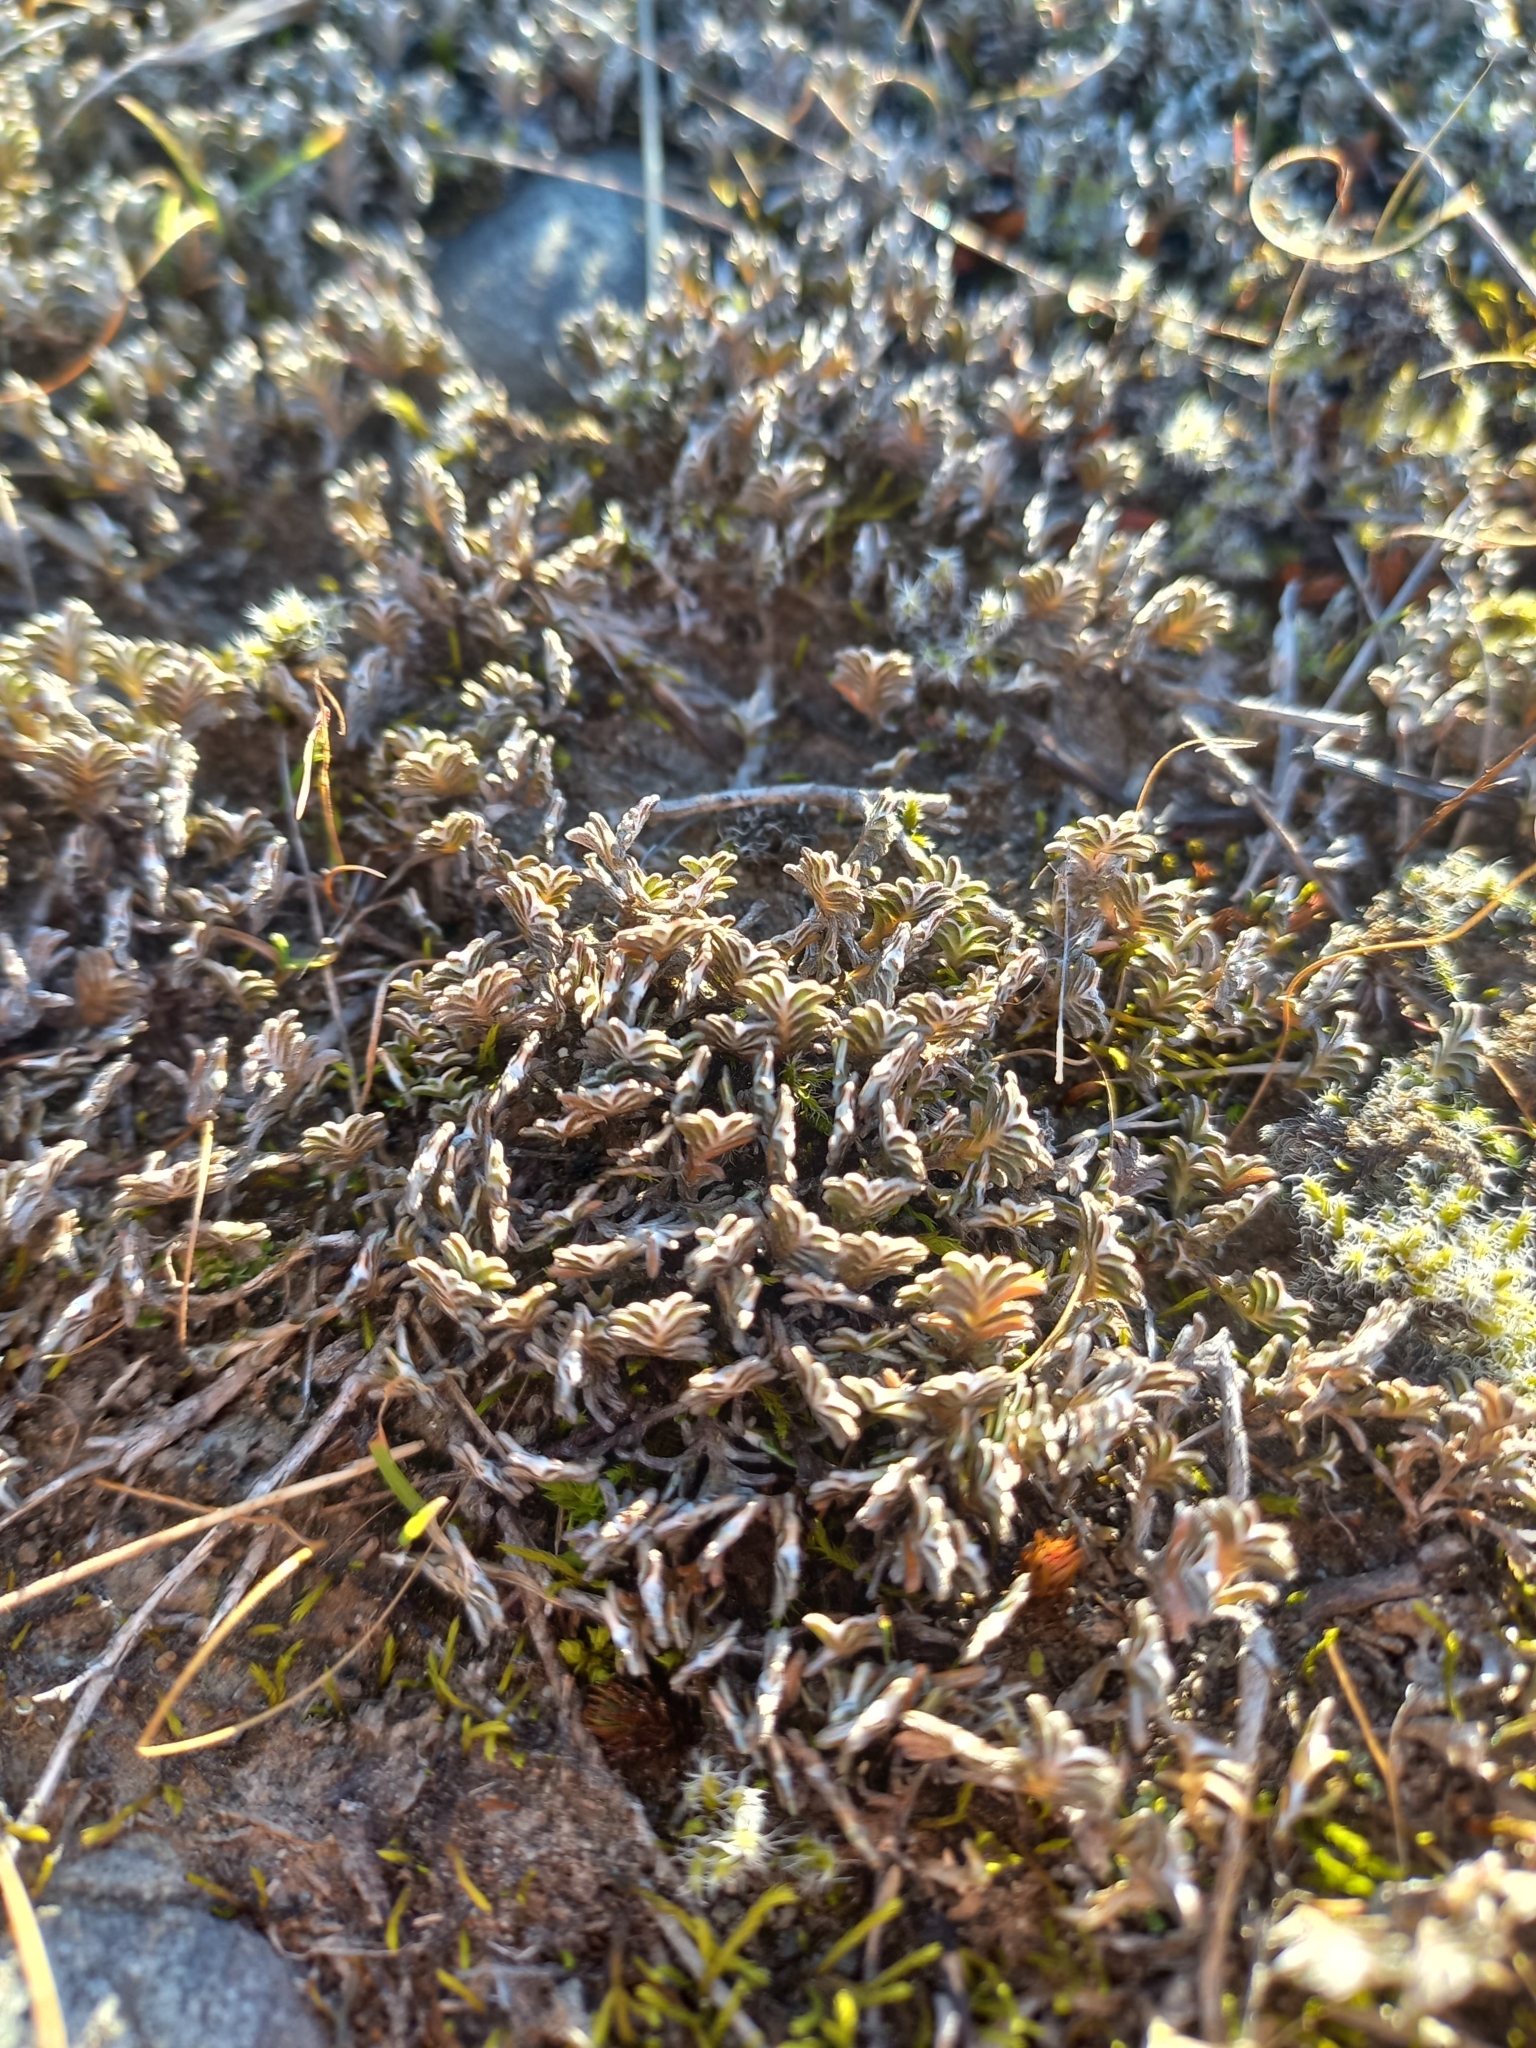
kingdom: Plantae
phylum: Tracheophyta
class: Magnoliopsida
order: Asterales
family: Asteraceae
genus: Raoulia
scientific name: Raoulia monroi
